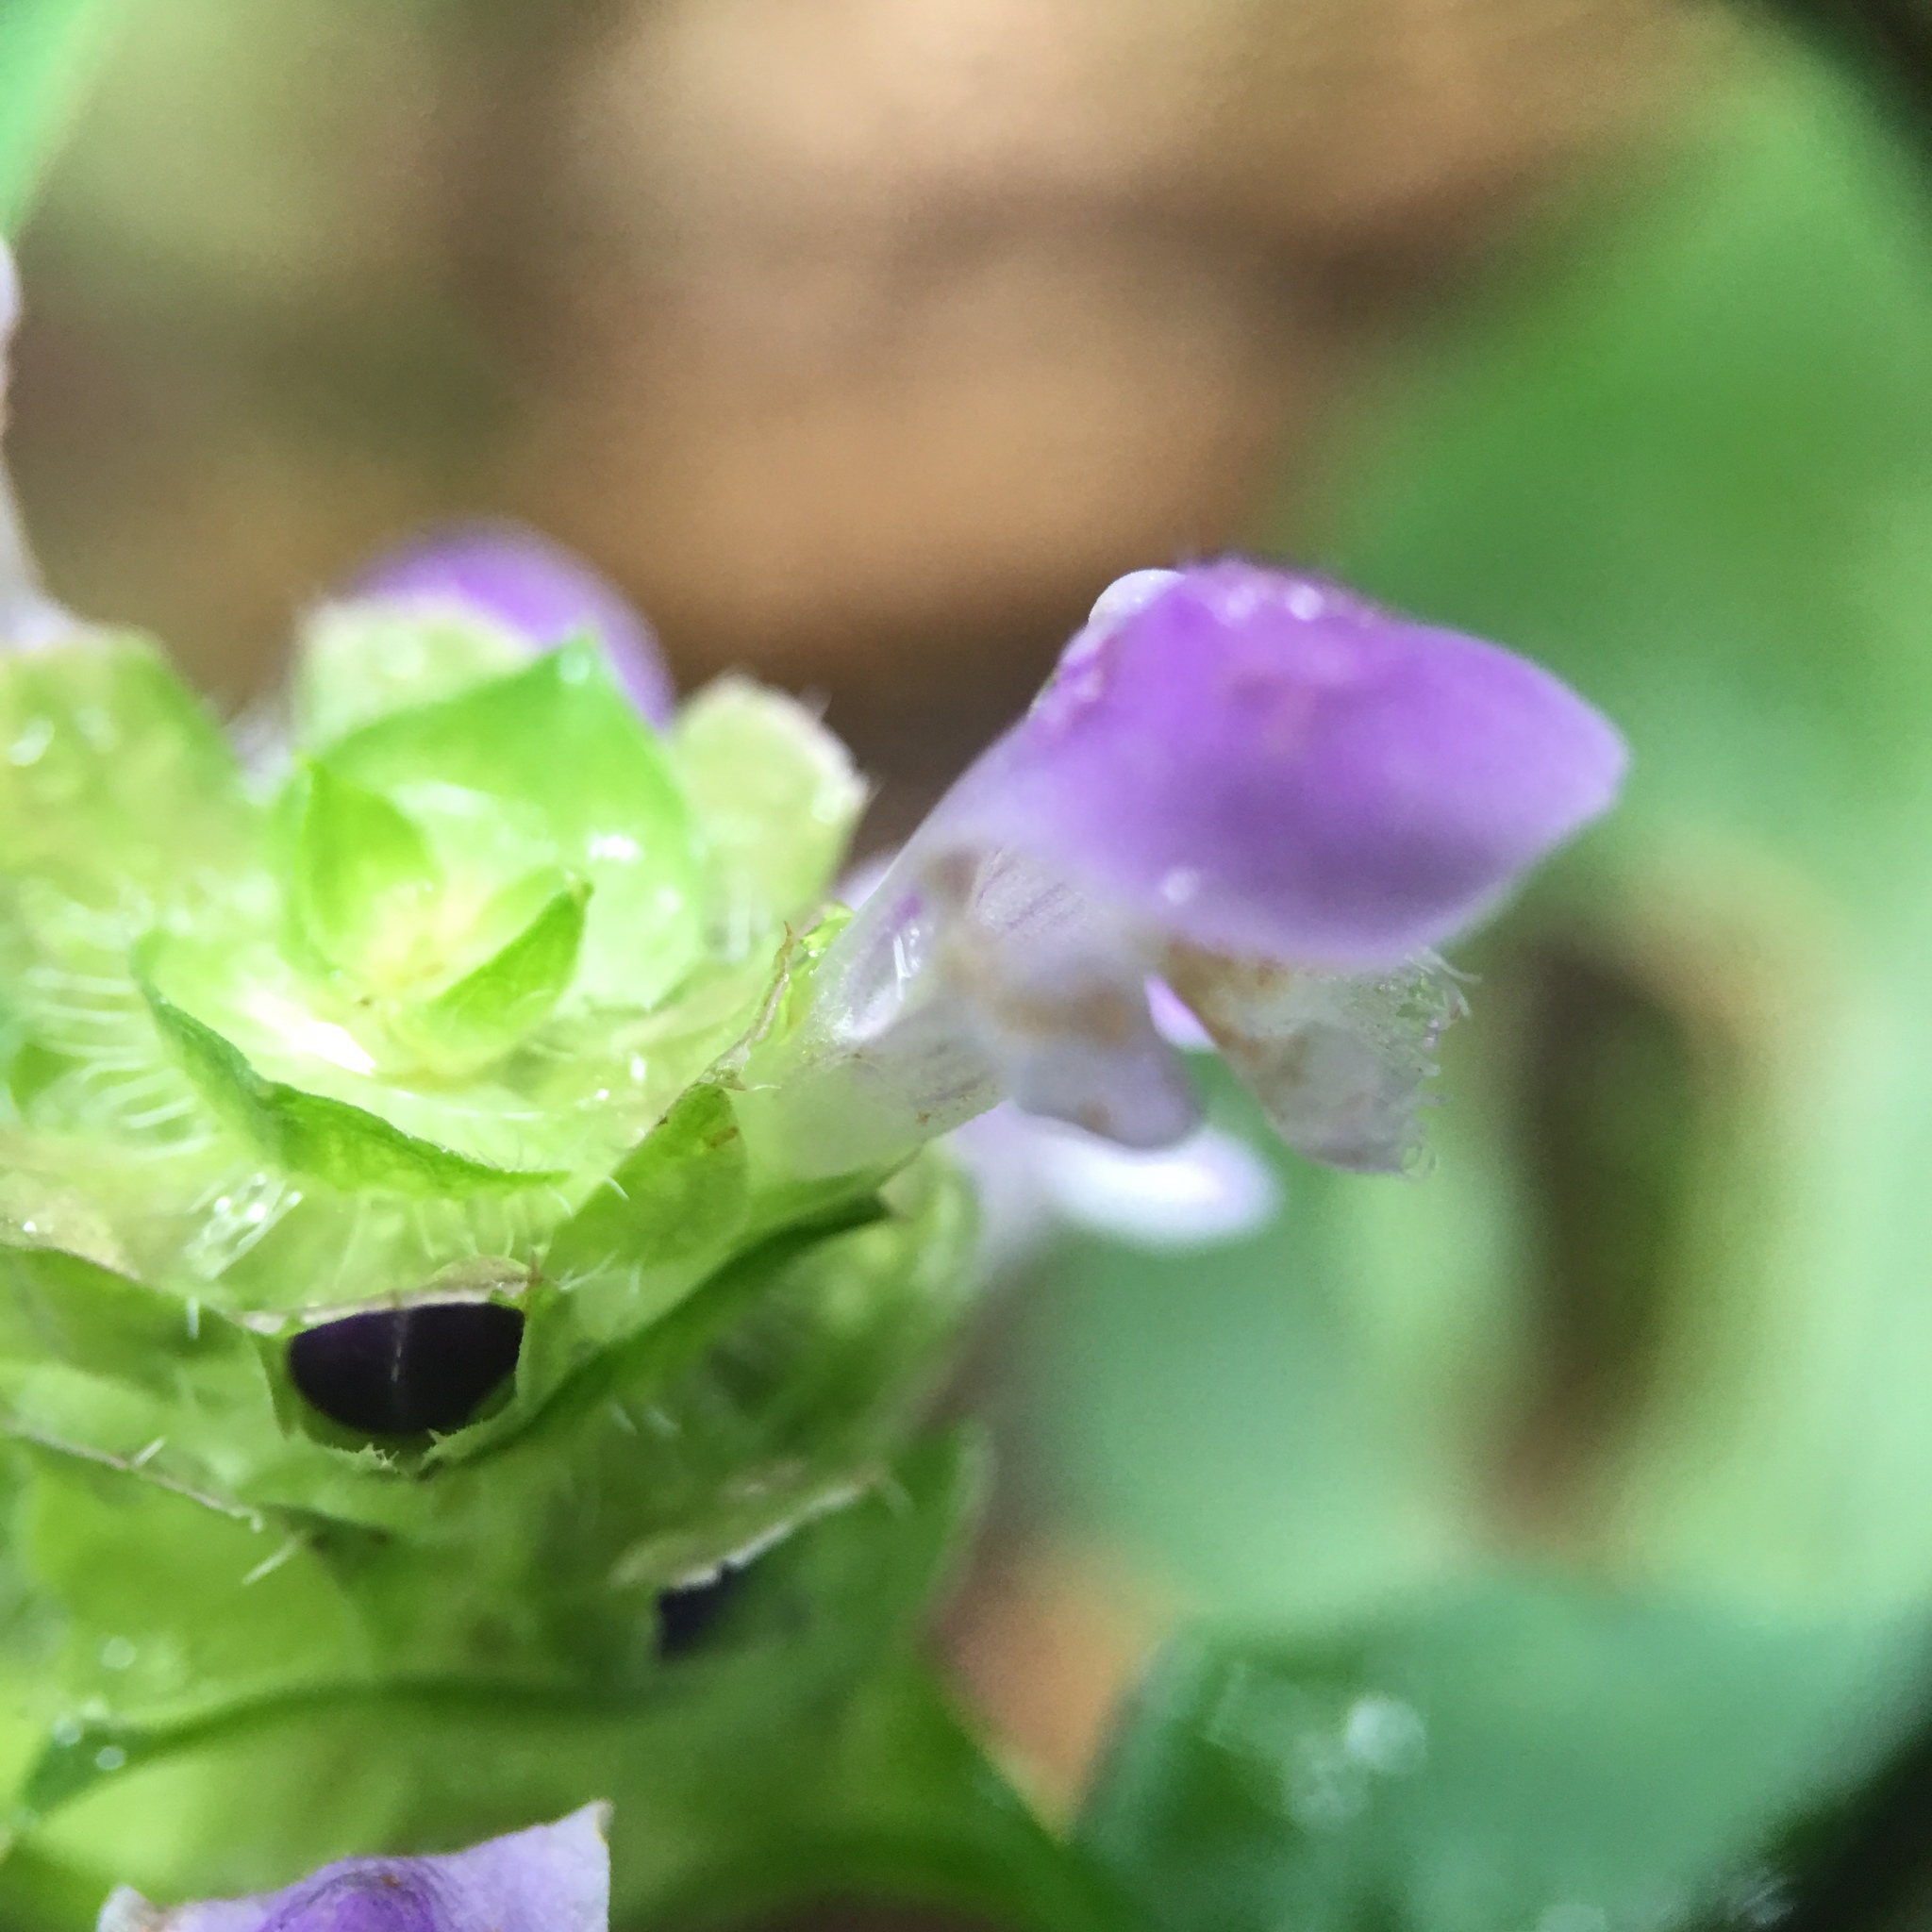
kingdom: Plantae
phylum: Tracheophyta
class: Magnoliopsida
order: Lamiales
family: Lamiaceae
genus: Prunella
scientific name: Prunella vulgaris
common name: Heal-all
